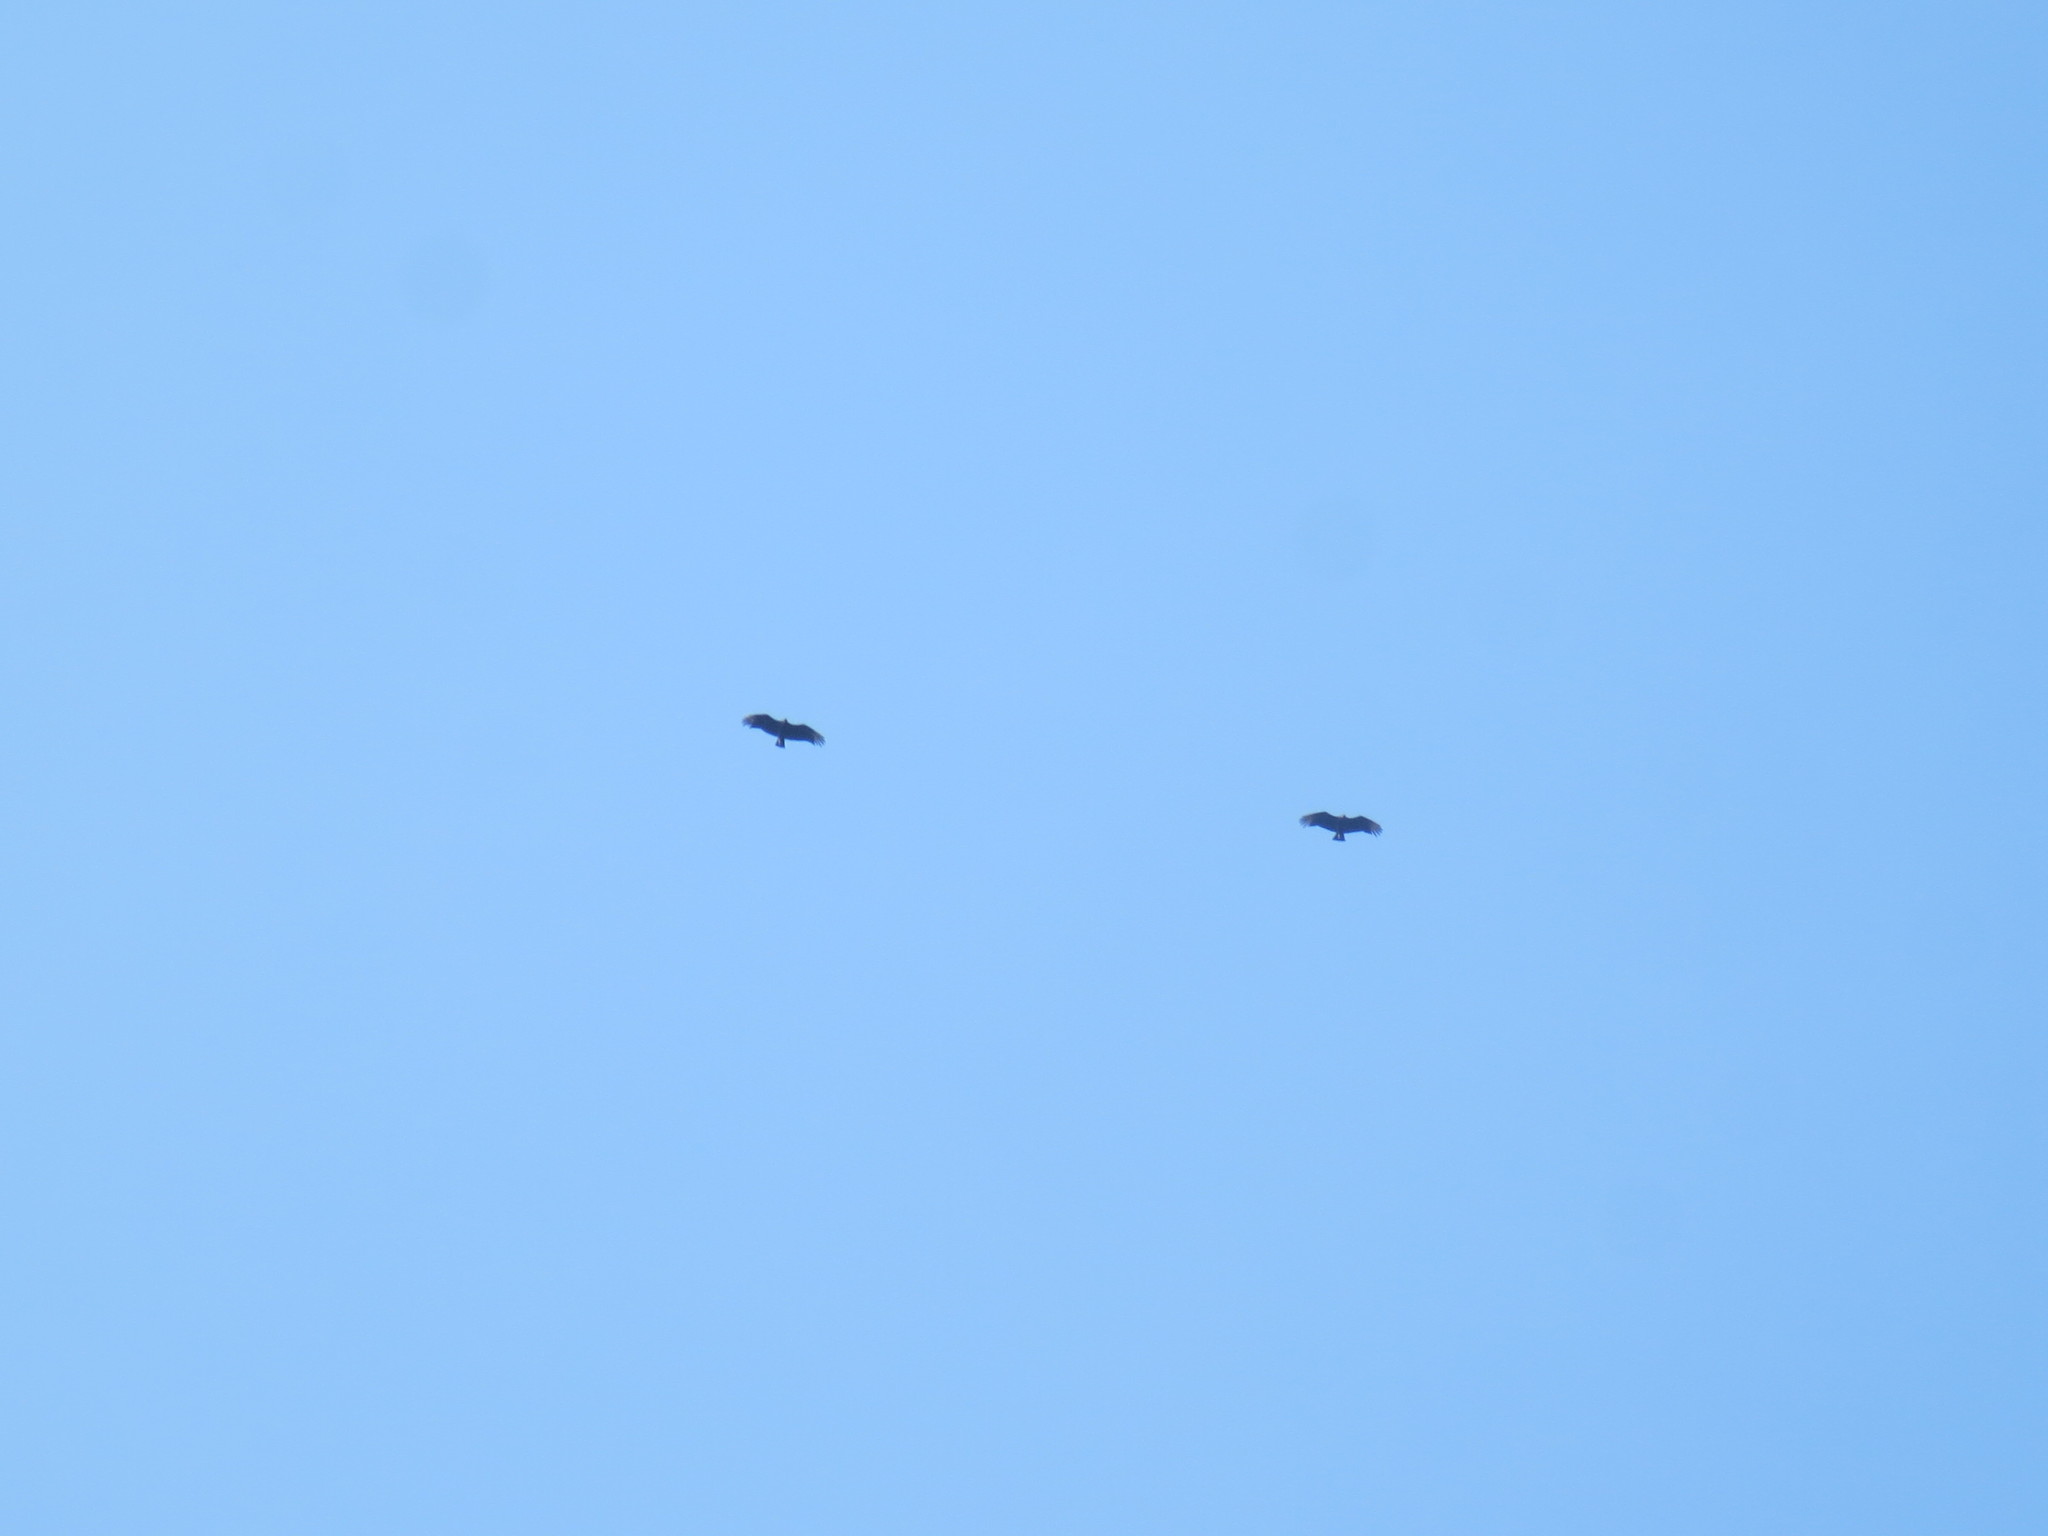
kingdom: Animalia
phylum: Chordata
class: Aves
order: Accipitriformes
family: Cathartidae
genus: Coragyps
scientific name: Coragyps atratus
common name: Black vulture
